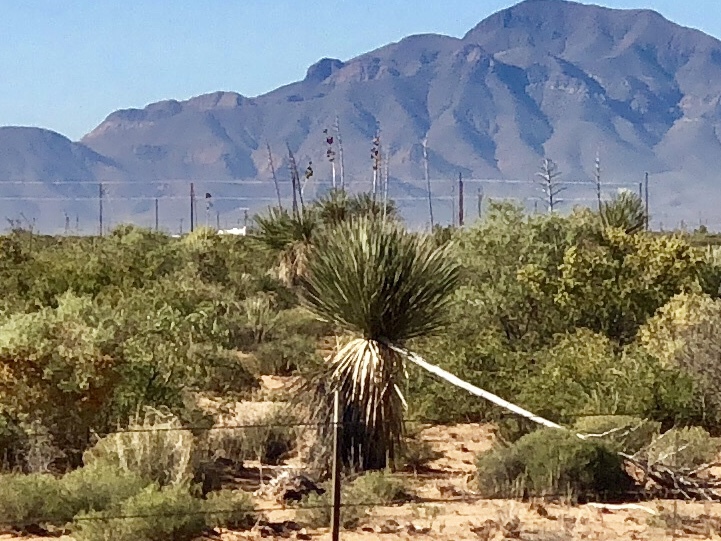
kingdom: Plantae
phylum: Tracheophyta
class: Liliopsida
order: Asparagales
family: Asparagaceae
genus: Yucca
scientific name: Yucca elata
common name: Palmella
